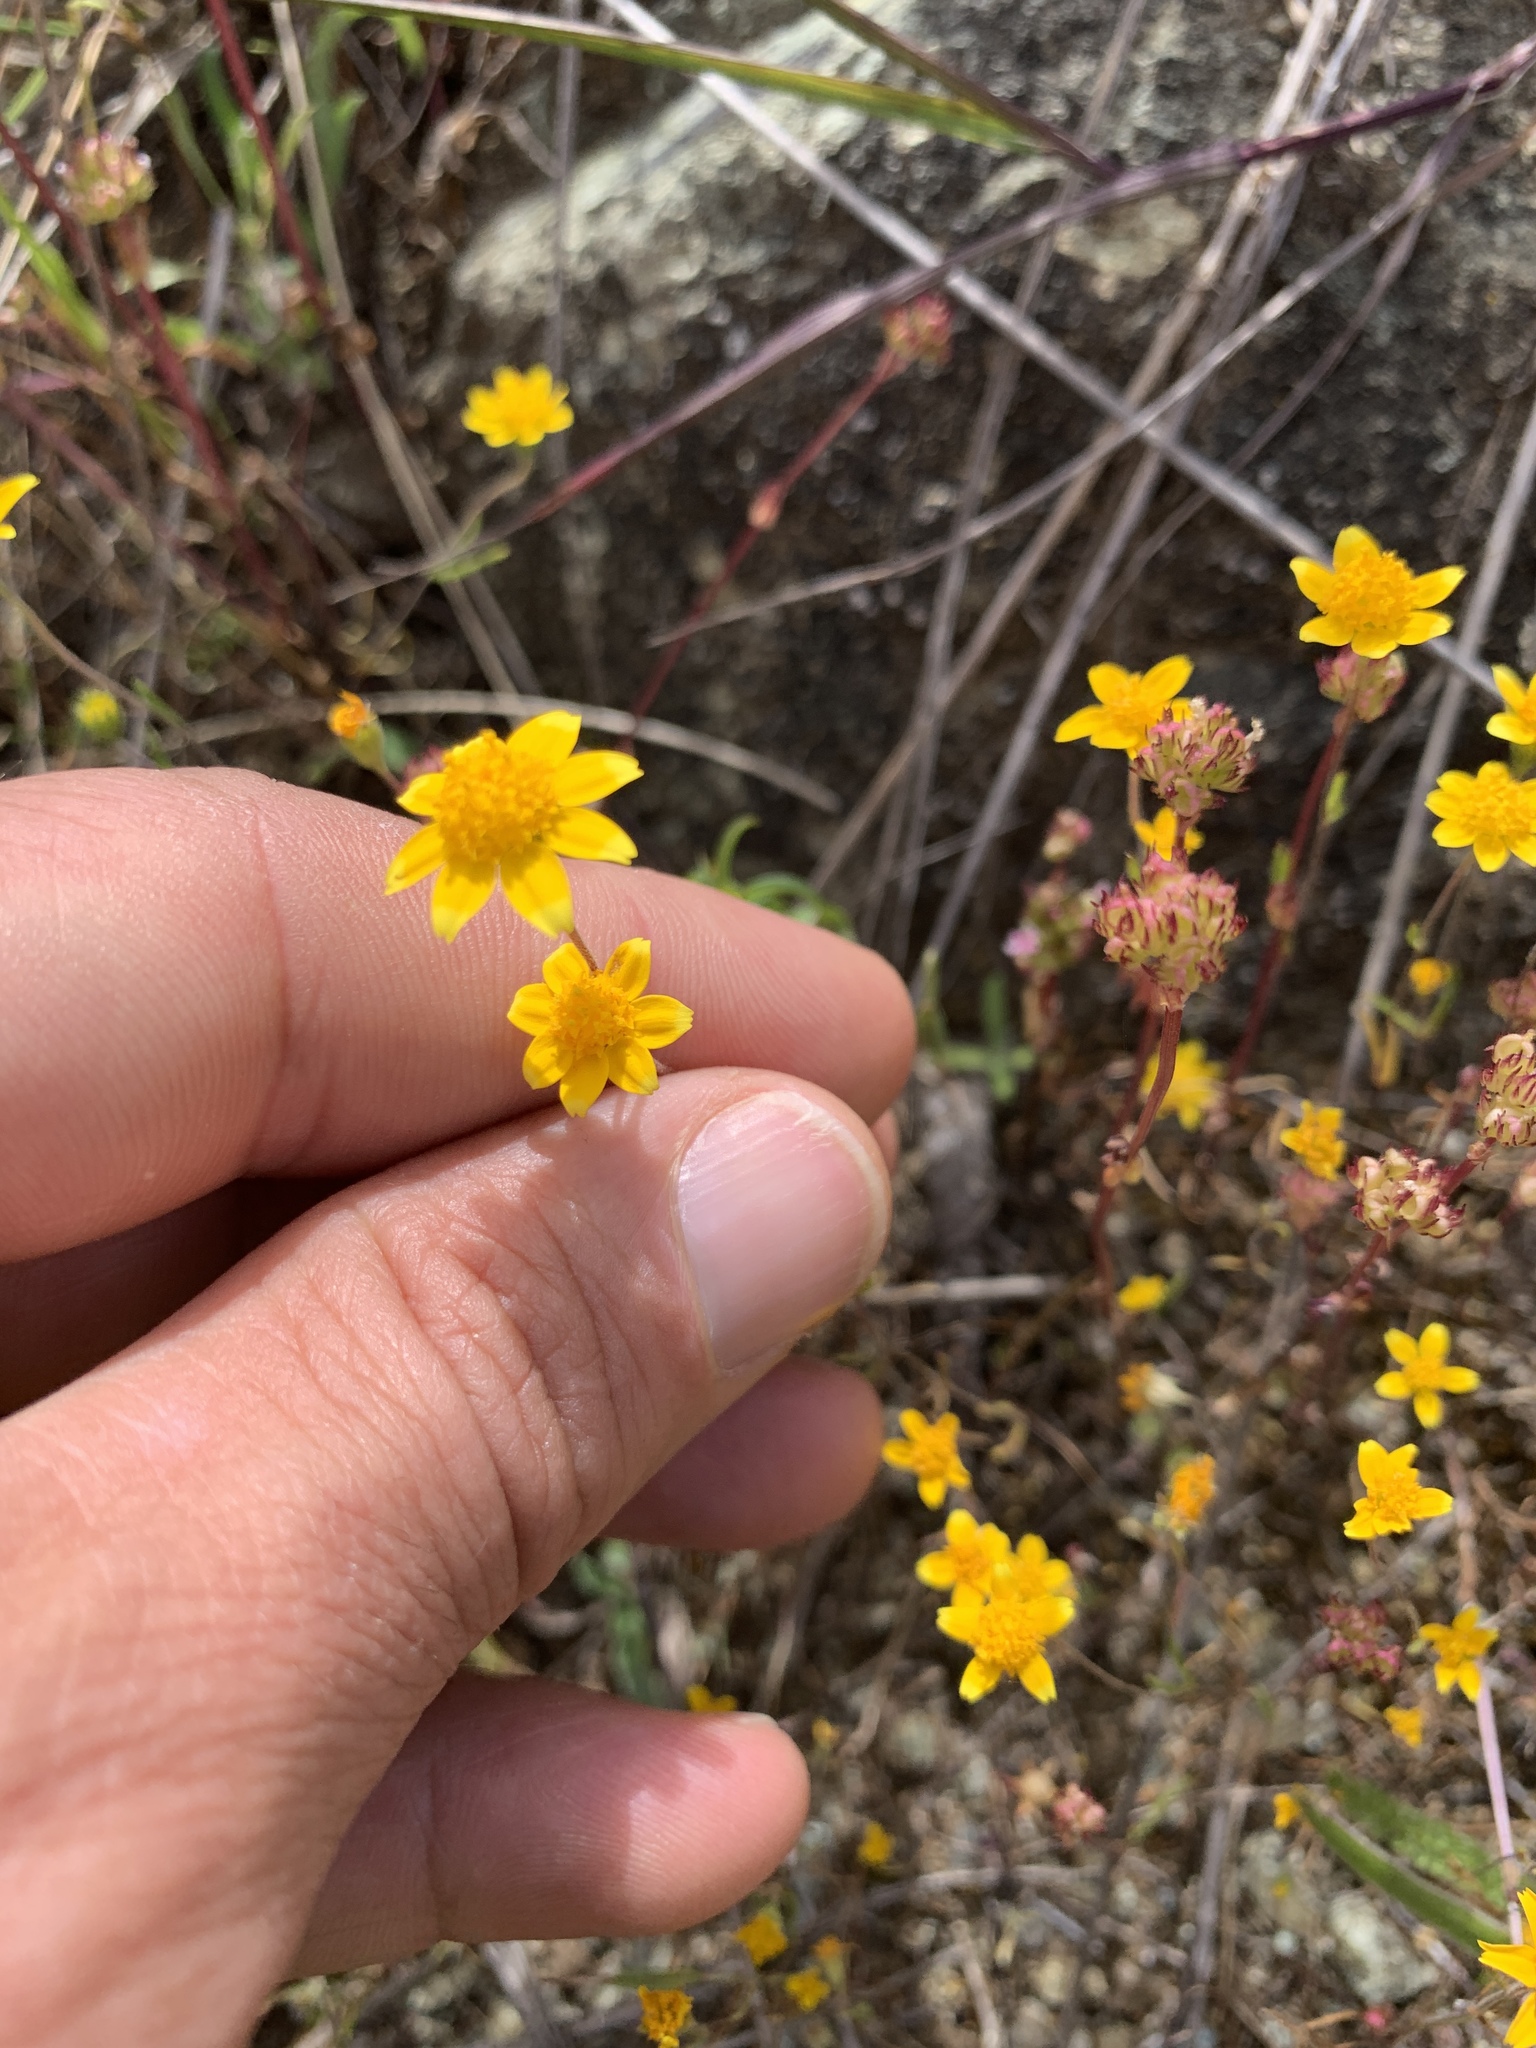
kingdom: Plantae
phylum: Tracheophyta
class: Magnoliopsida
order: Asterales
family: Asteraceae
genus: Lasthenia
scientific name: Lasthenia californica
